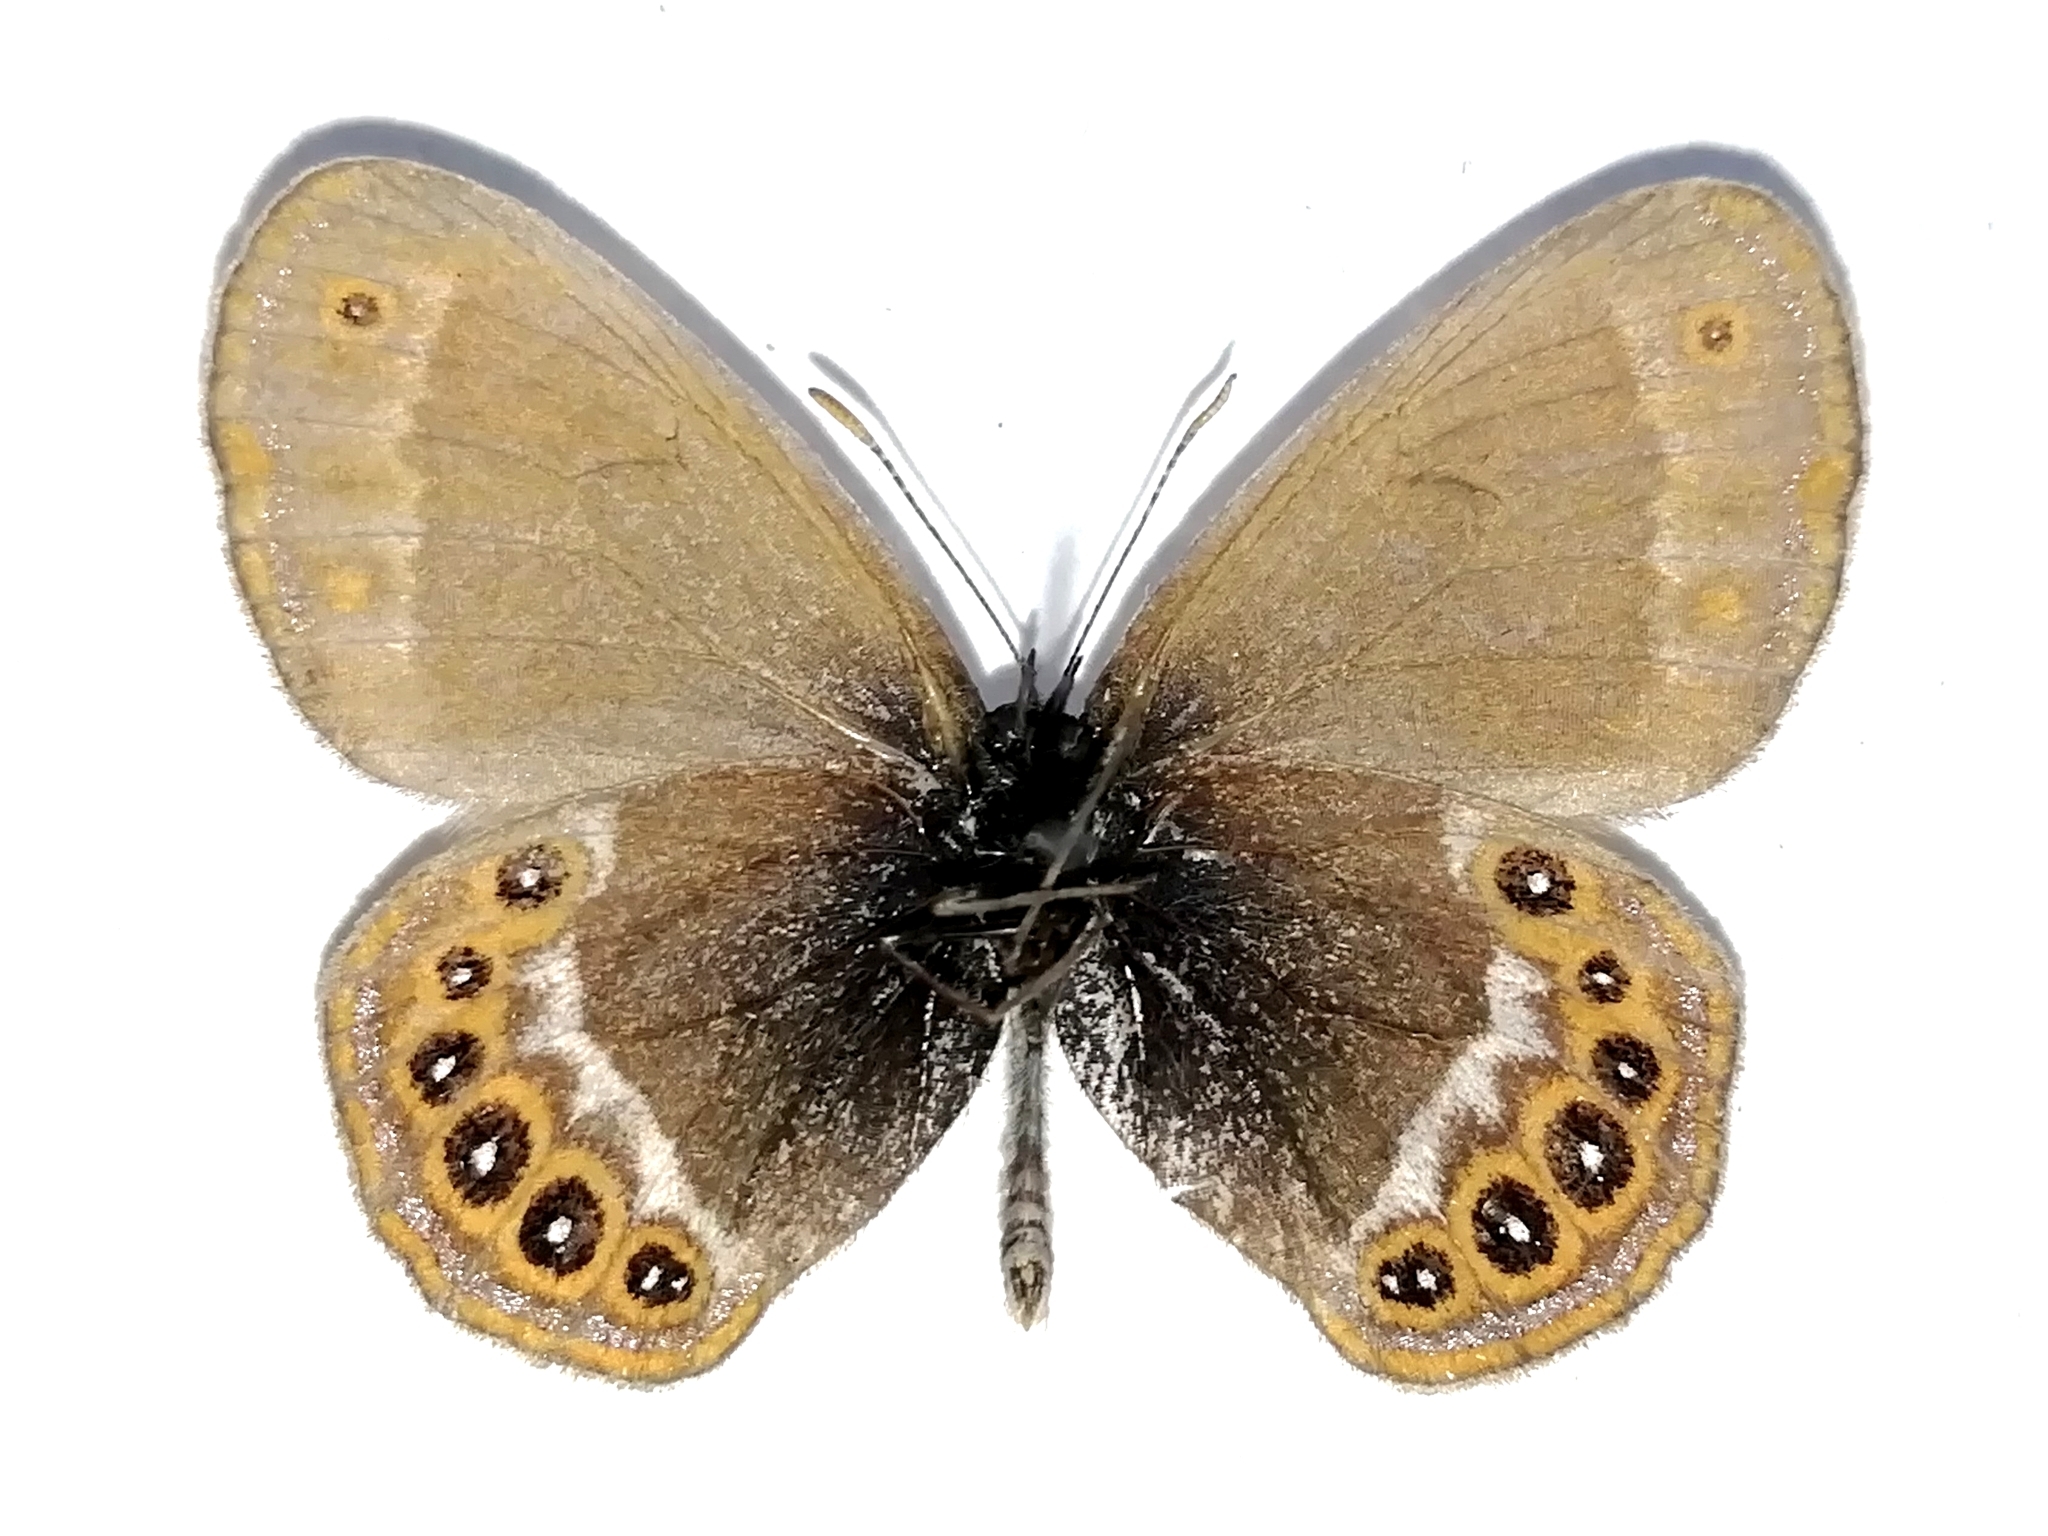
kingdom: Animalia
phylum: Arthropoda
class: Insecta
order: Lepidoptera
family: Nymphalidae
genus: Coenonympha
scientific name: Coenonympha hero
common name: Scarce heath
